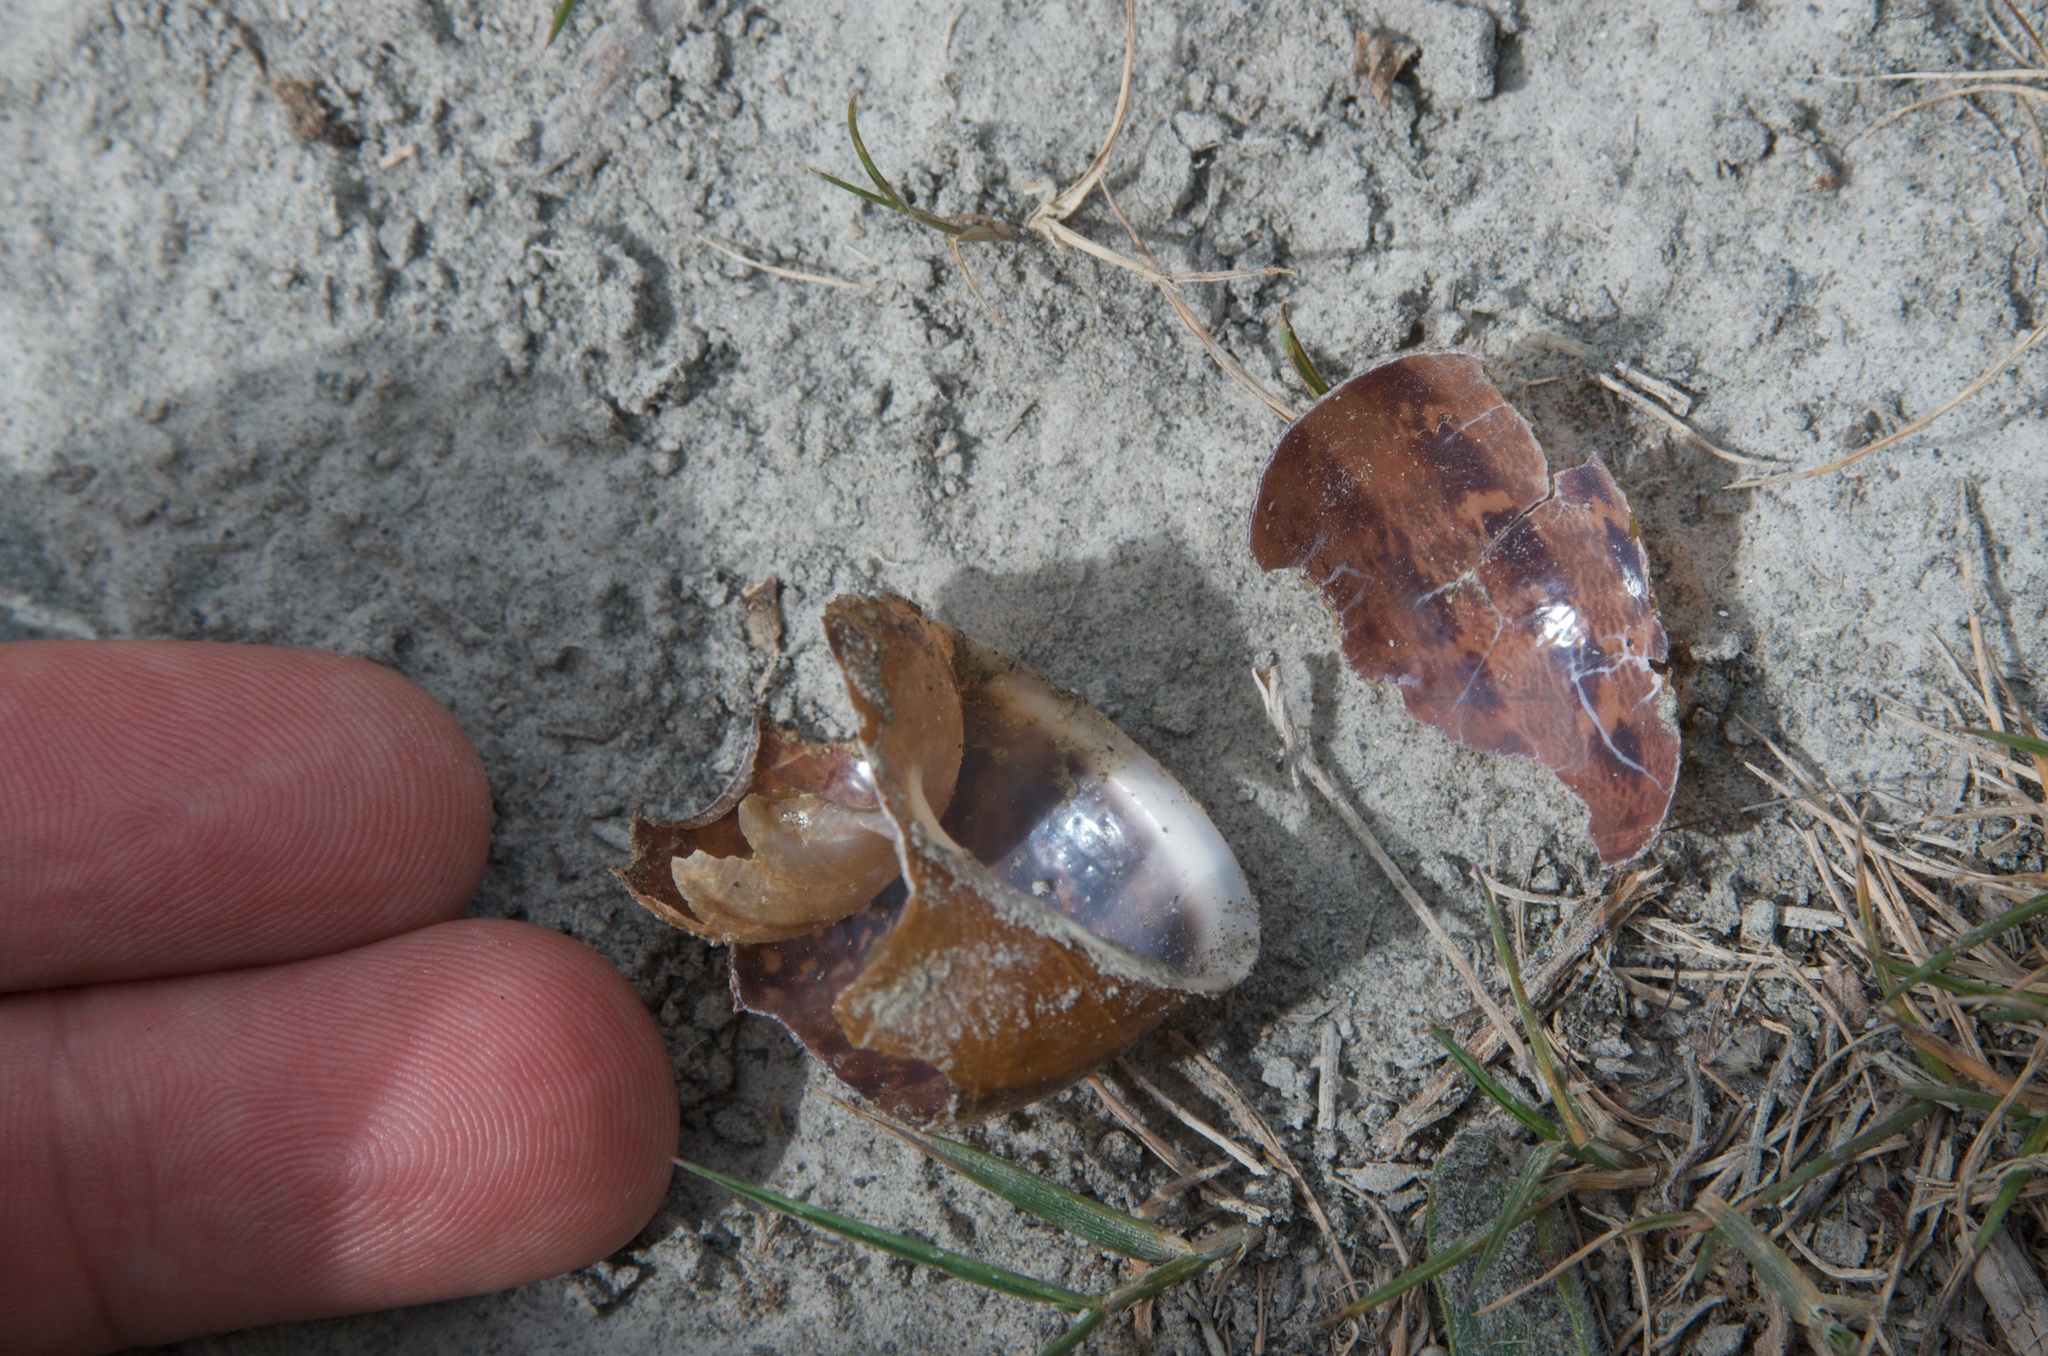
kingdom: Animalia
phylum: Mollusca
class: Gastropoda
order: Stylommatophora
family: Helicidae
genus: Cornu
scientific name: Cornu aspersum
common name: Brown garden snail
